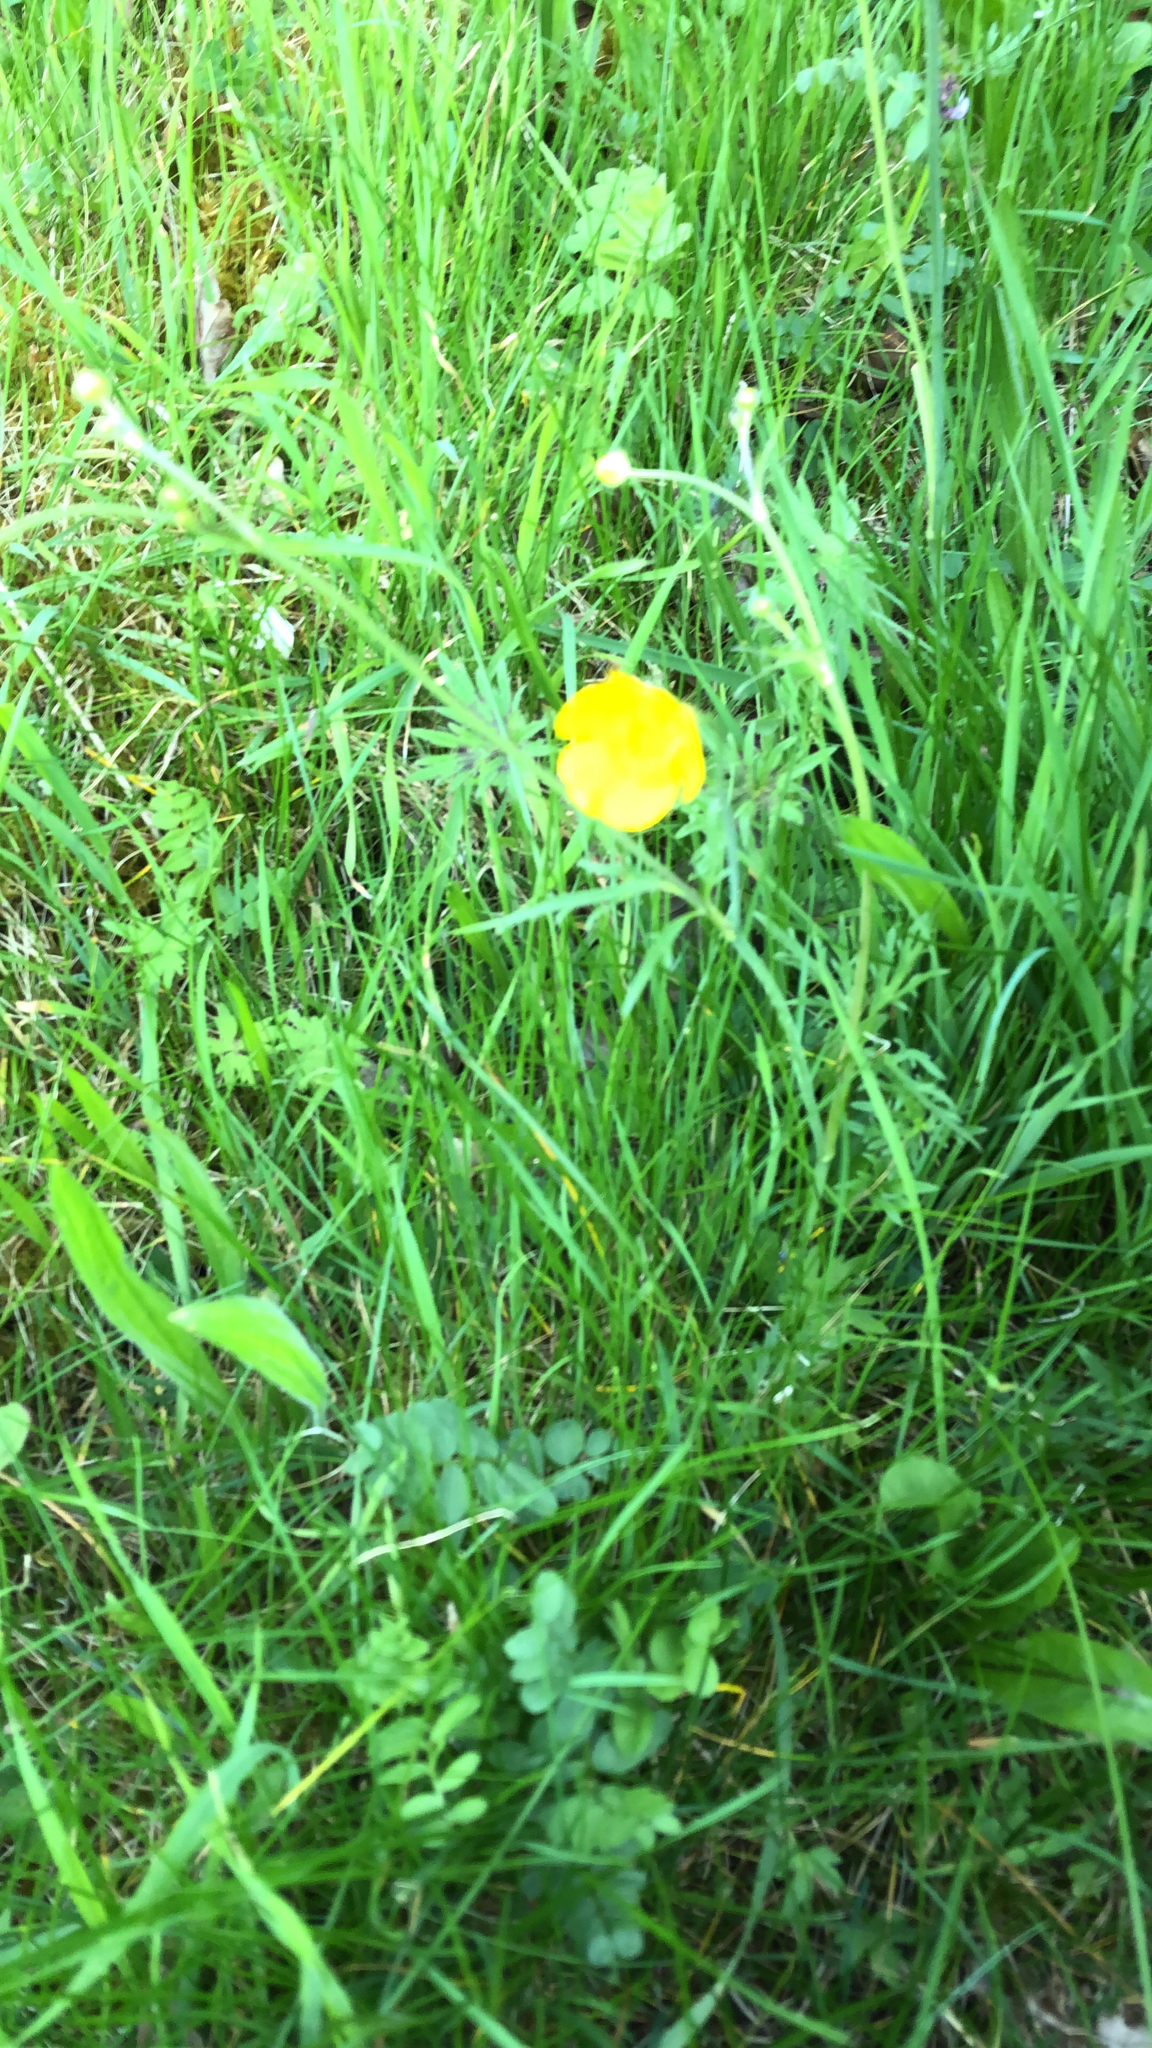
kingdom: Plantae
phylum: Tracheophyta
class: Magnoliopsida
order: Ranunculales
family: Ranunculaceae
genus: Ranunculus
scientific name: Ranunculus acris
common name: Meadow buttercup
